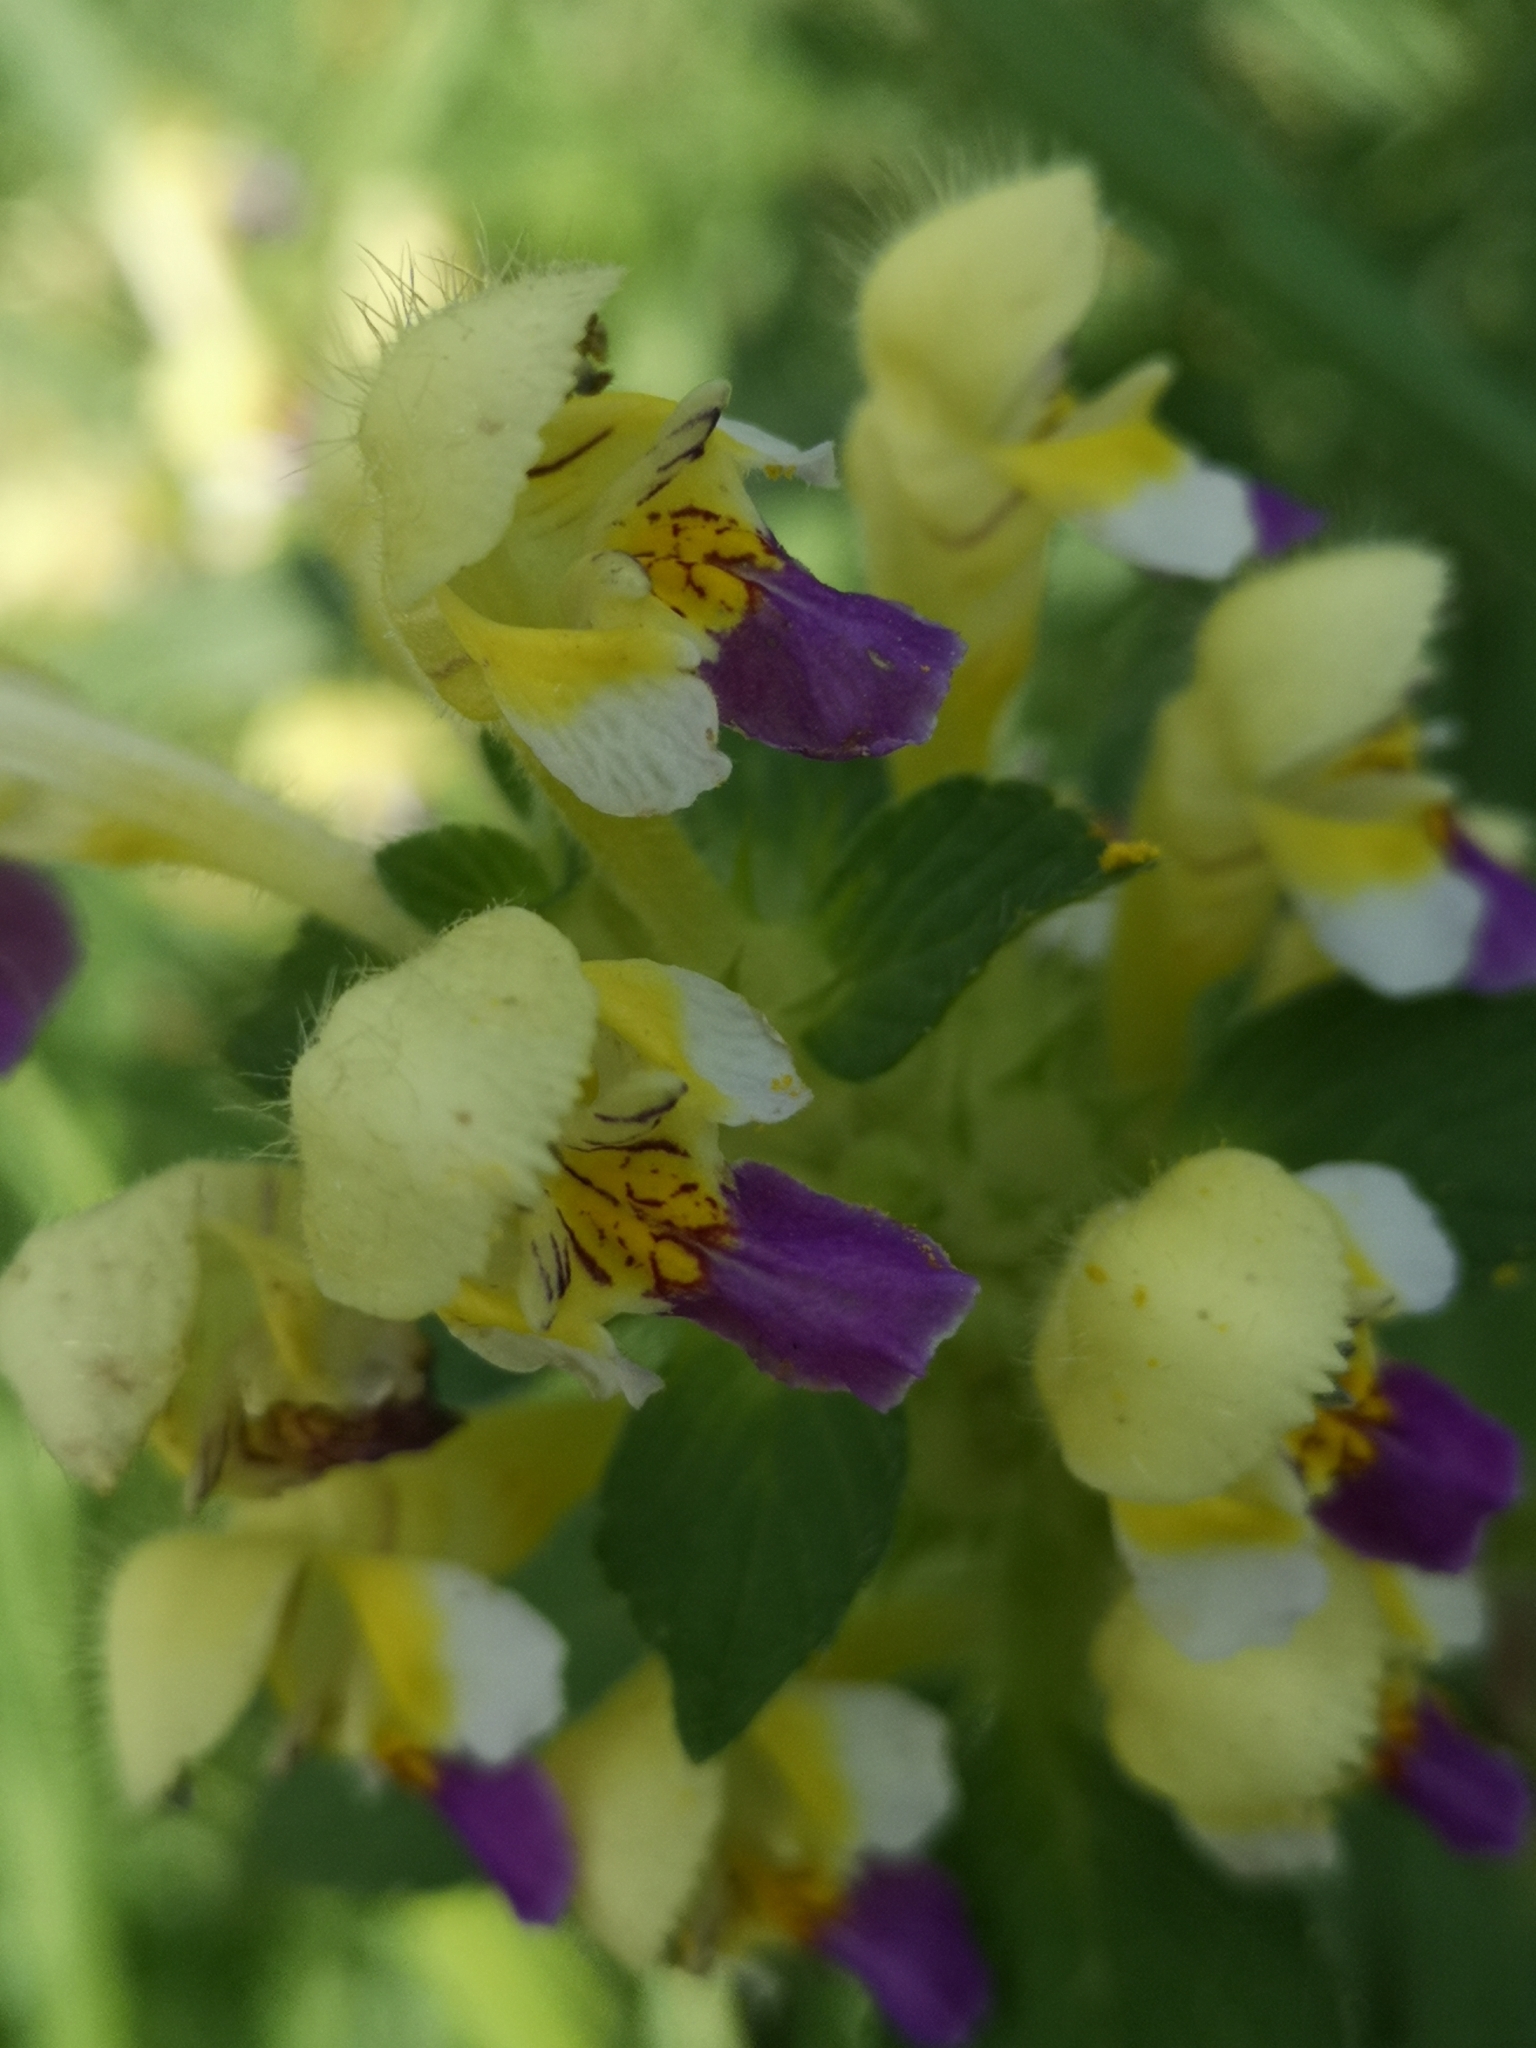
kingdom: Plantae
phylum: Tracheophyta
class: Magnoliopsida
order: Lamiales
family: Lamiaceae
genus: Galeopsis
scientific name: Galeopsis speciosa
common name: Large-flowered hemp-nettle
